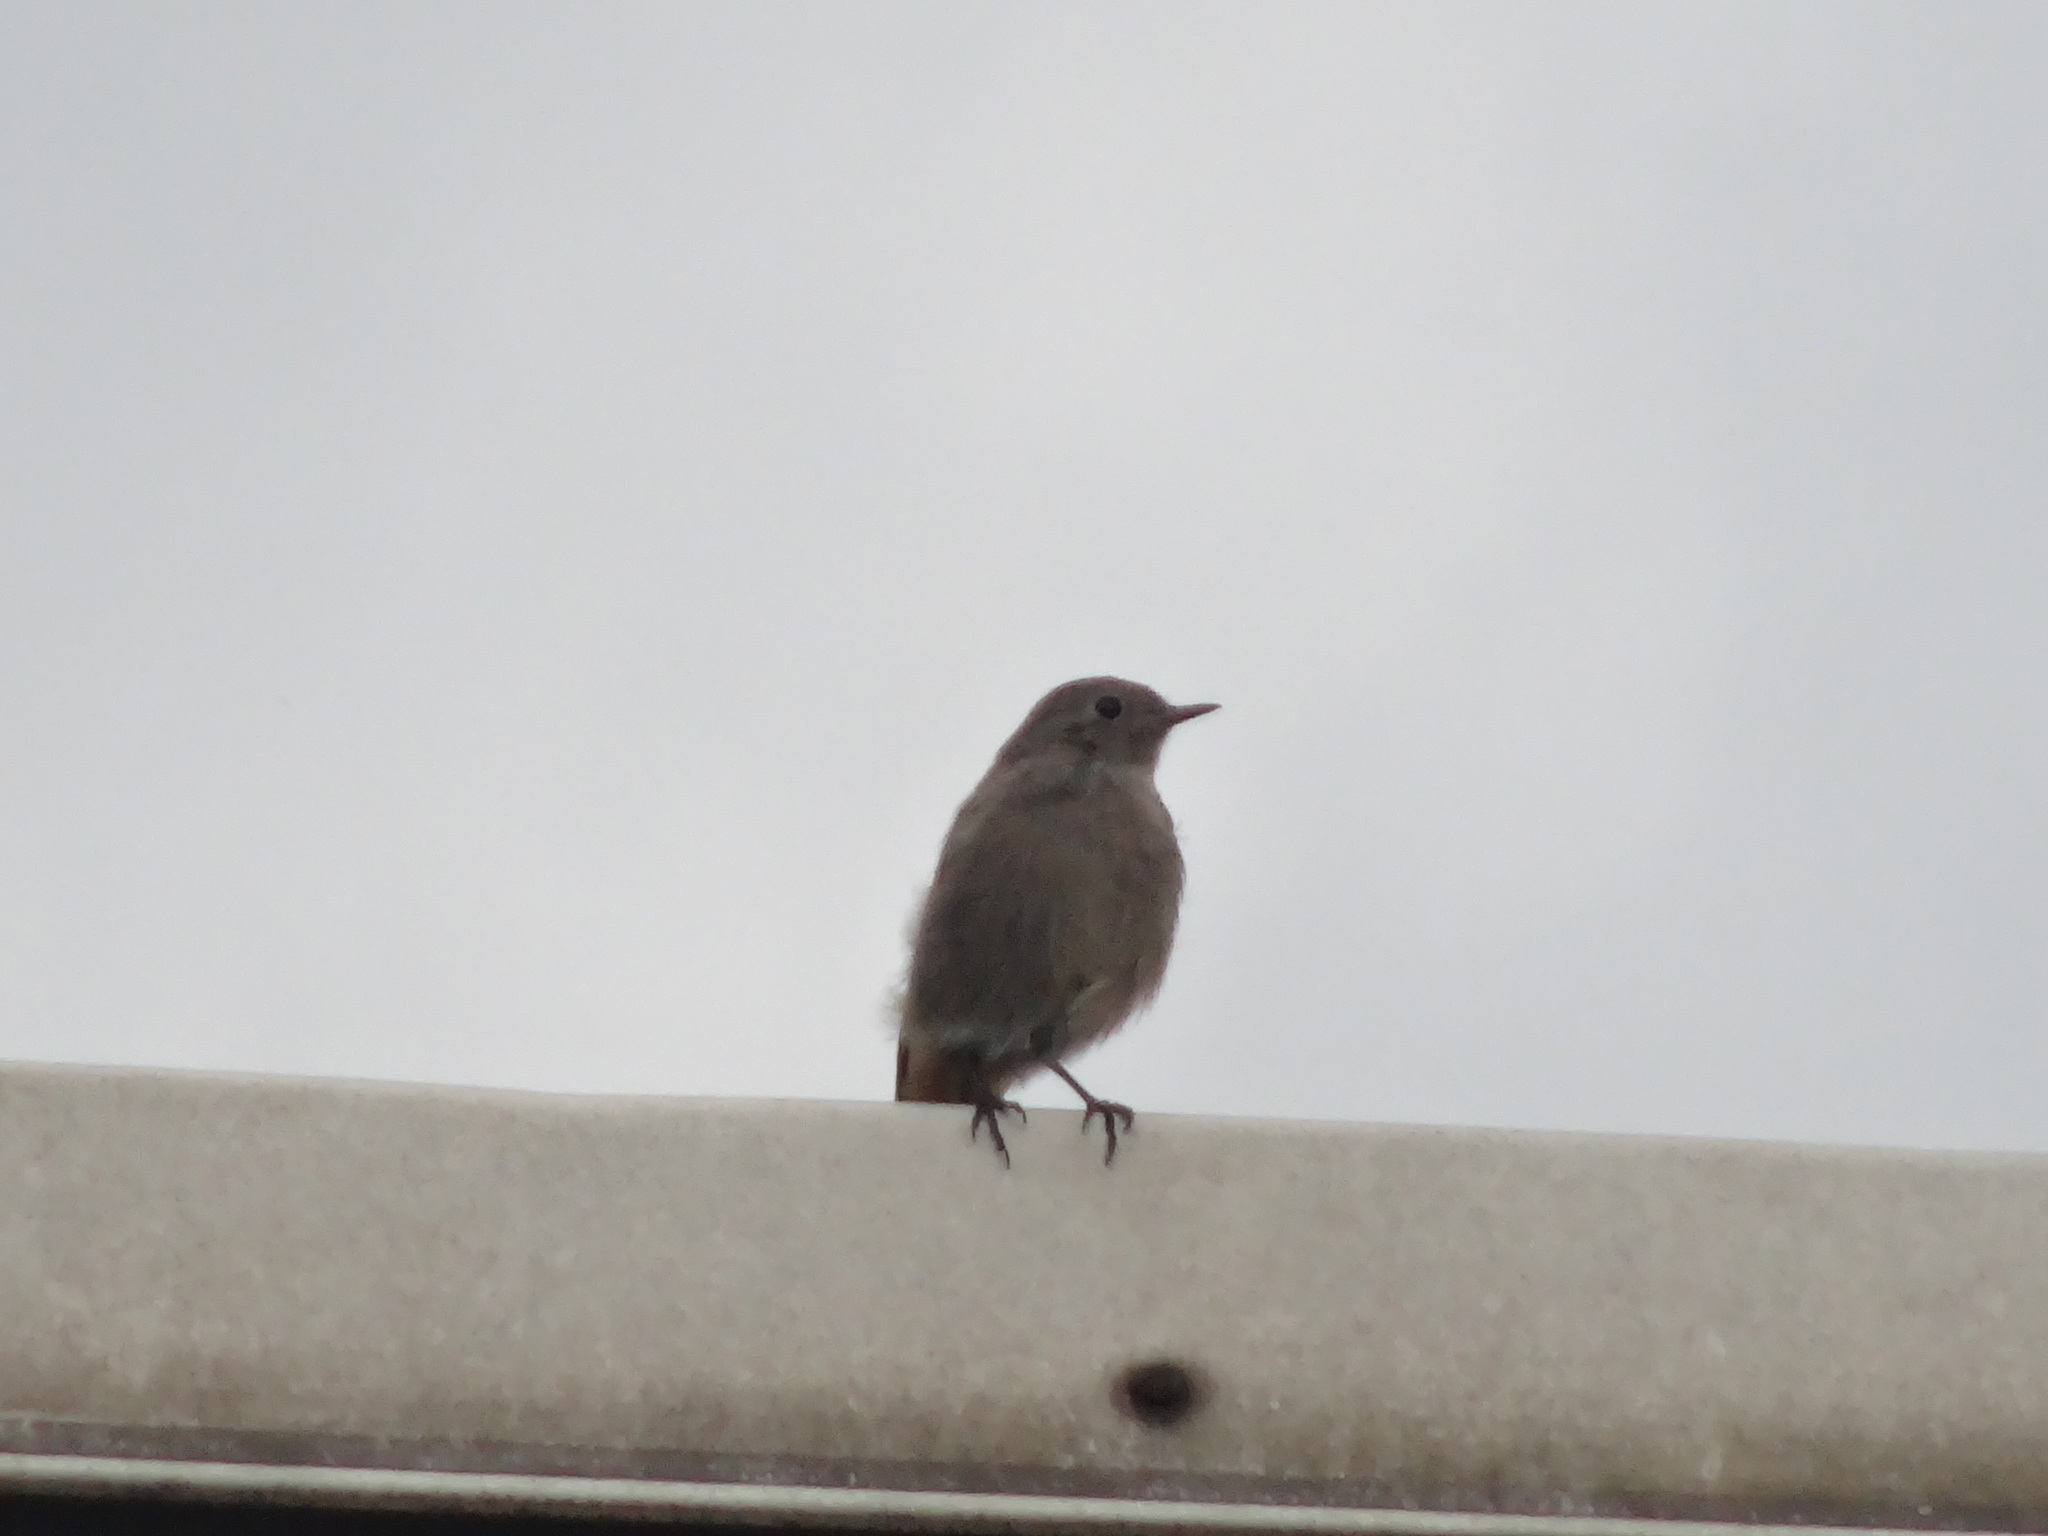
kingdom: Animalia
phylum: Chordata
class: Aves
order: Passeriformes
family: Muscicapidae
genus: Phoenicurus
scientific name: Phoenicurus ochruros
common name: Black redstart
